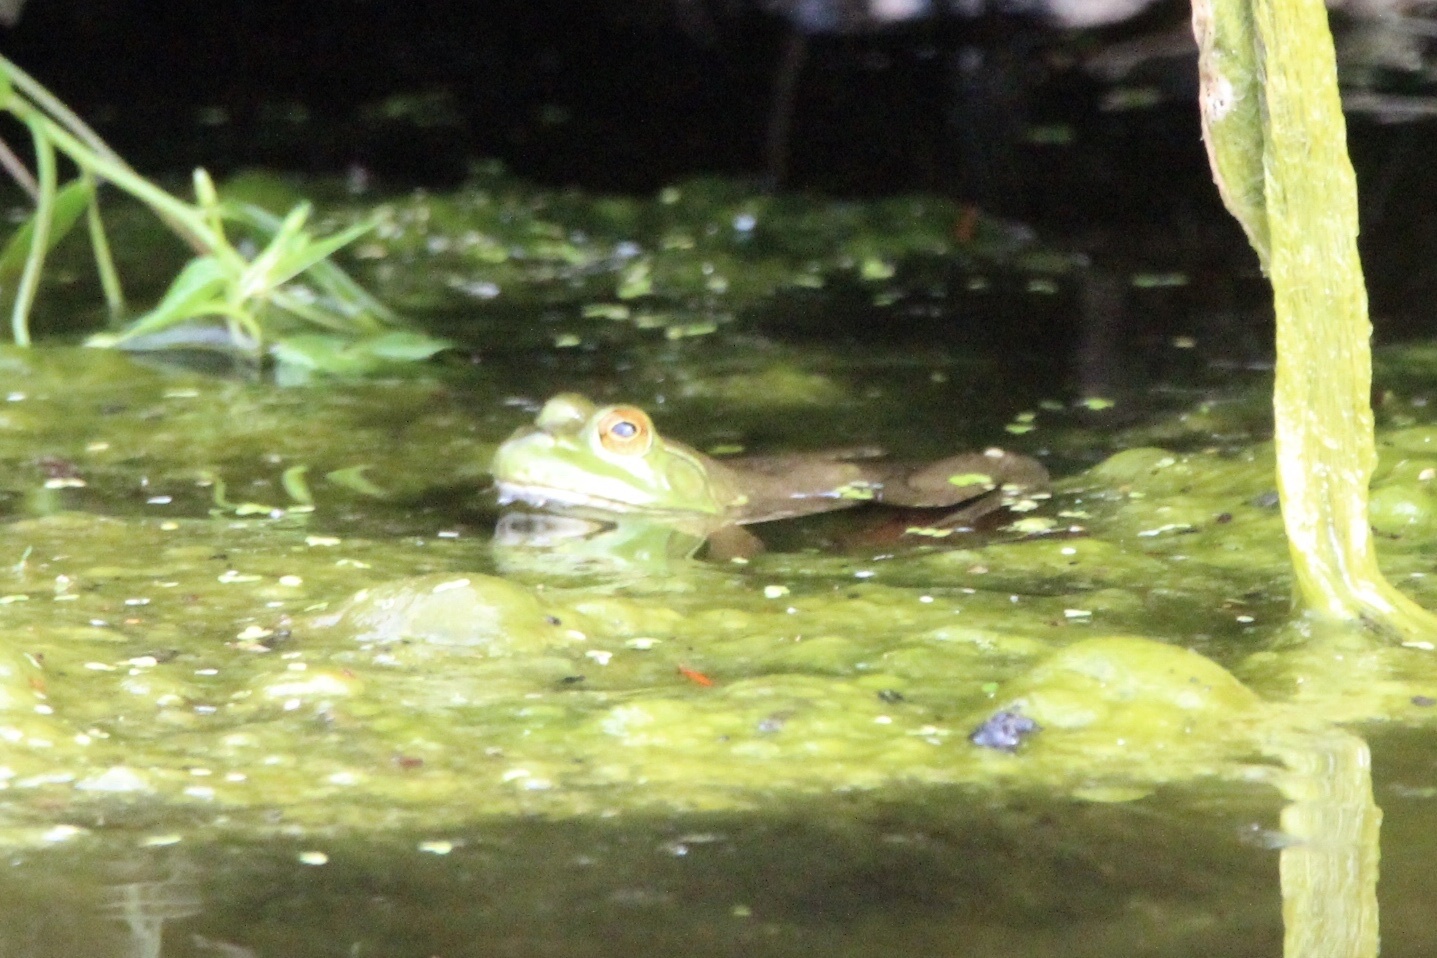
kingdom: Animalia
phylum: Chordata
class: Amphibia
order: Anura
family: Ranidae
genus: Lithobates
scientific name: Lithobates catesbeianus
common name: American bullfrog
